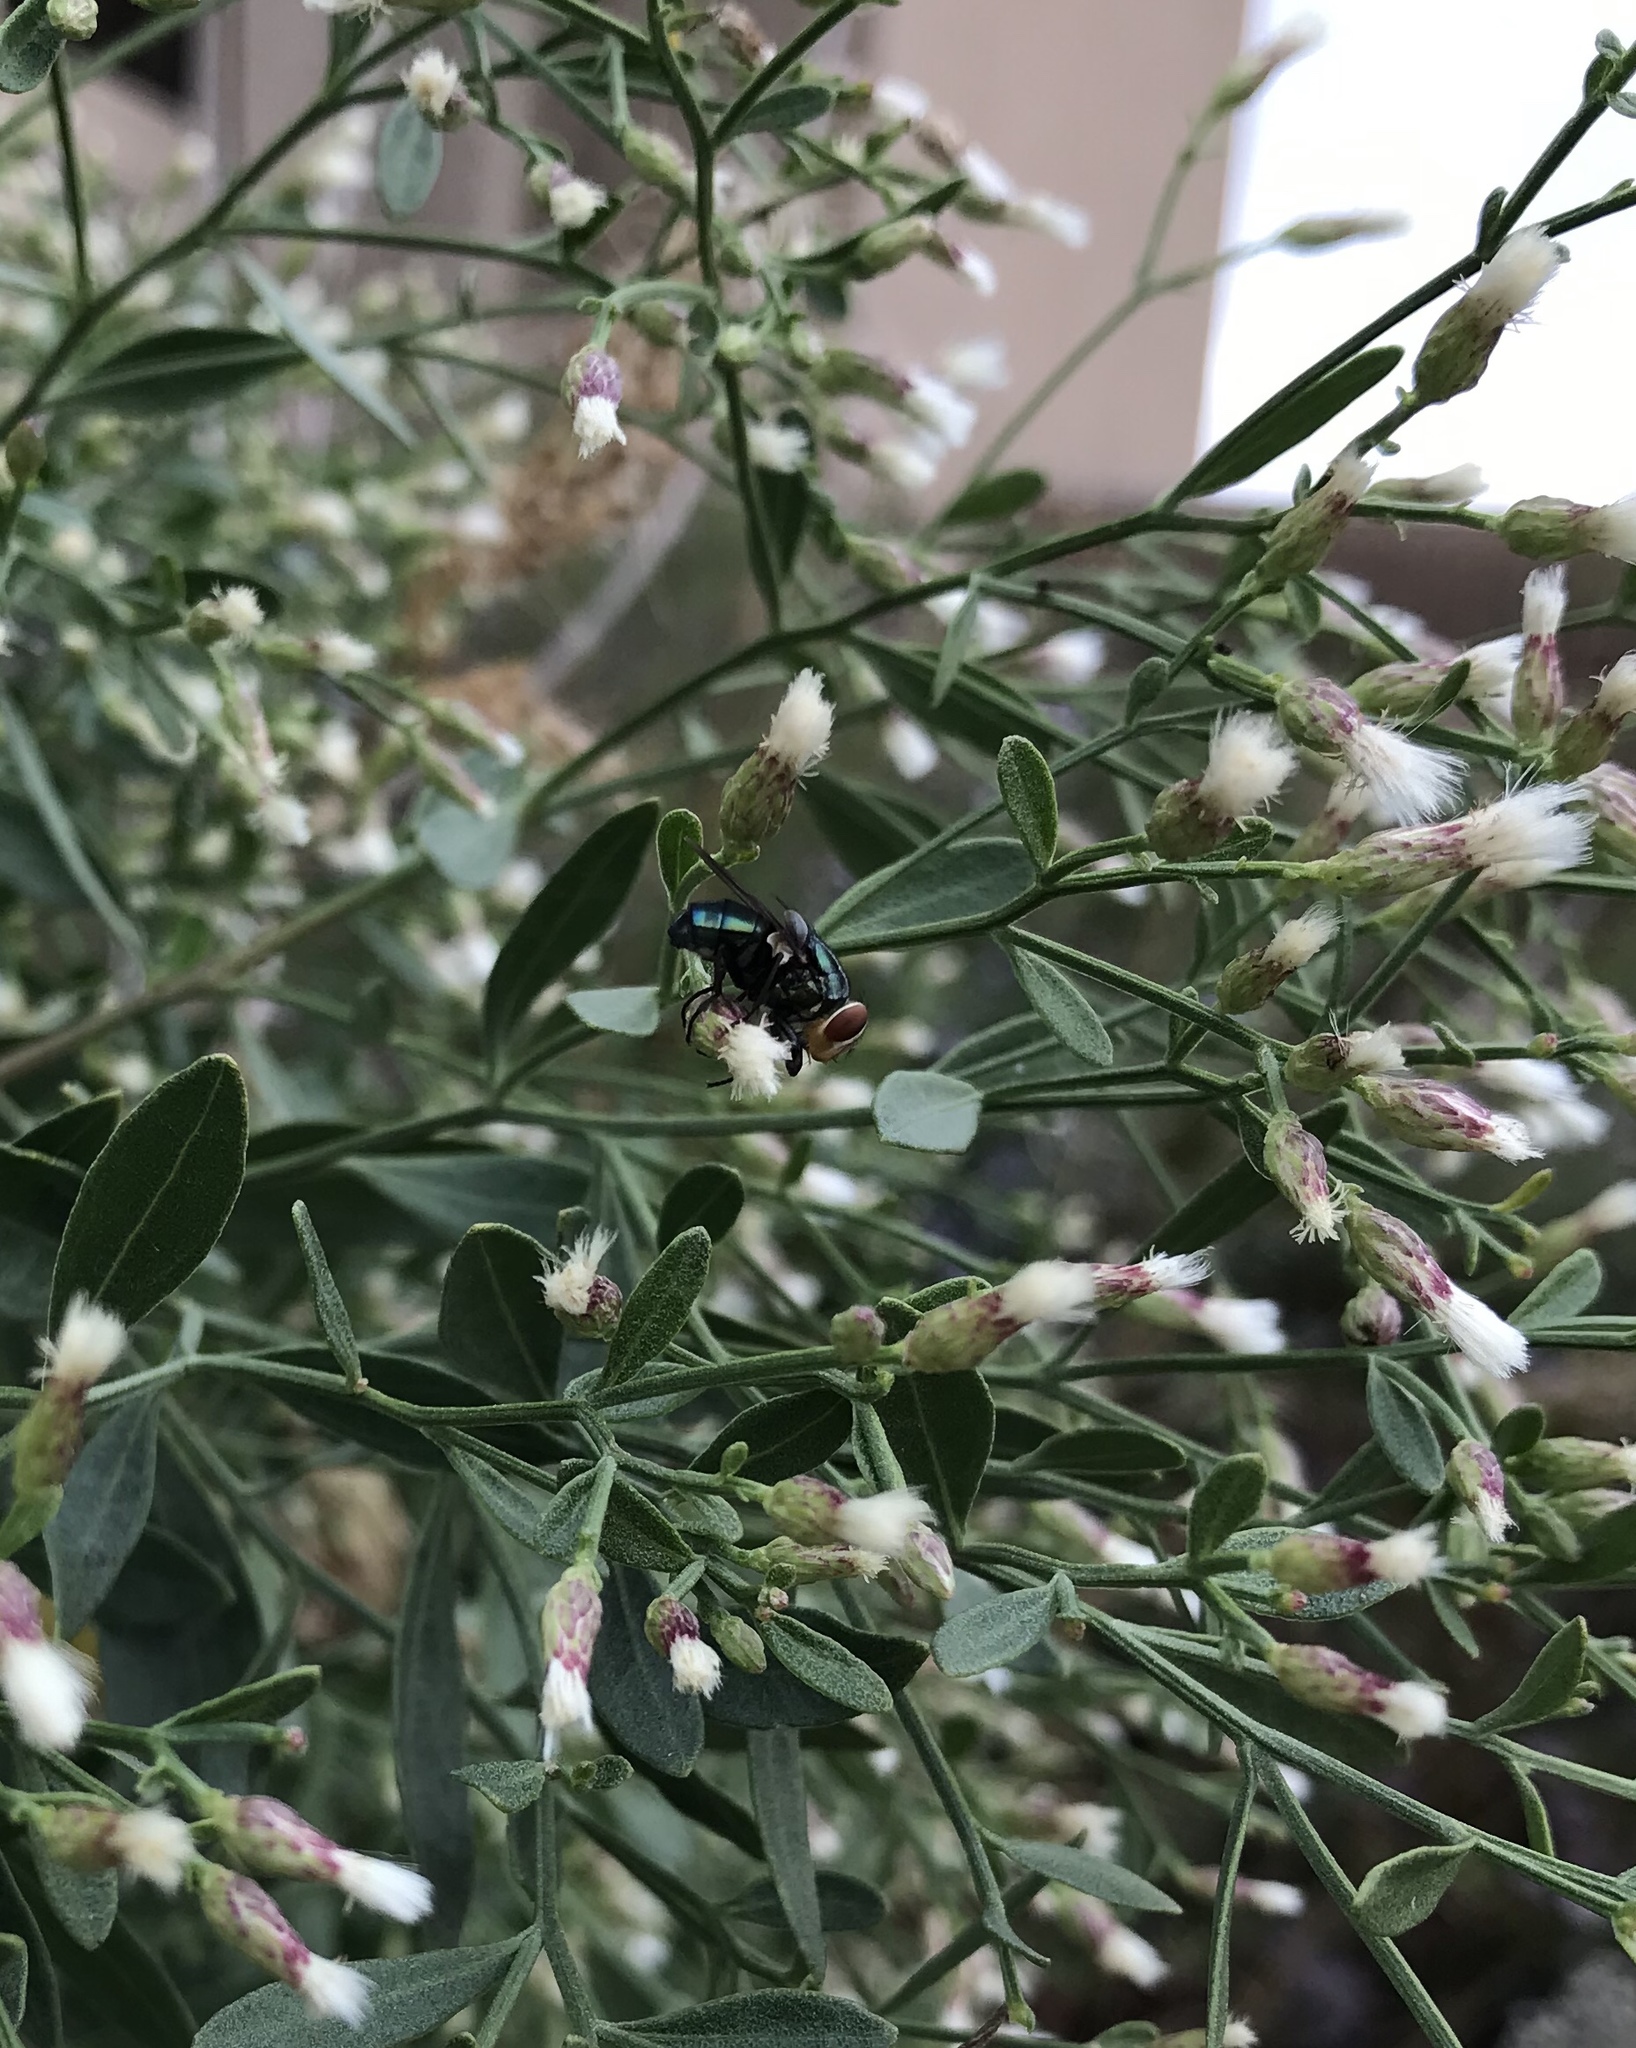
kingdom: Animalia
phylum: Arthropoda
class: Insecta
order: Diptera
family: Calliphoridae
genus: Cochliomyia
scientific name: Cochliomyia macellaria
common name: Secondary screwworm
